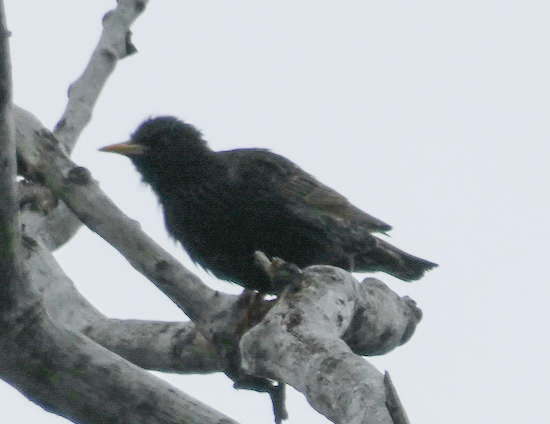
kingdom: Animalia
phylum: Chordata
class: Aves
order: Passeriformes
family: Sturnidae
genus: Sturnus
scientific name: Sturnus vulgaris
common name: Common starling
